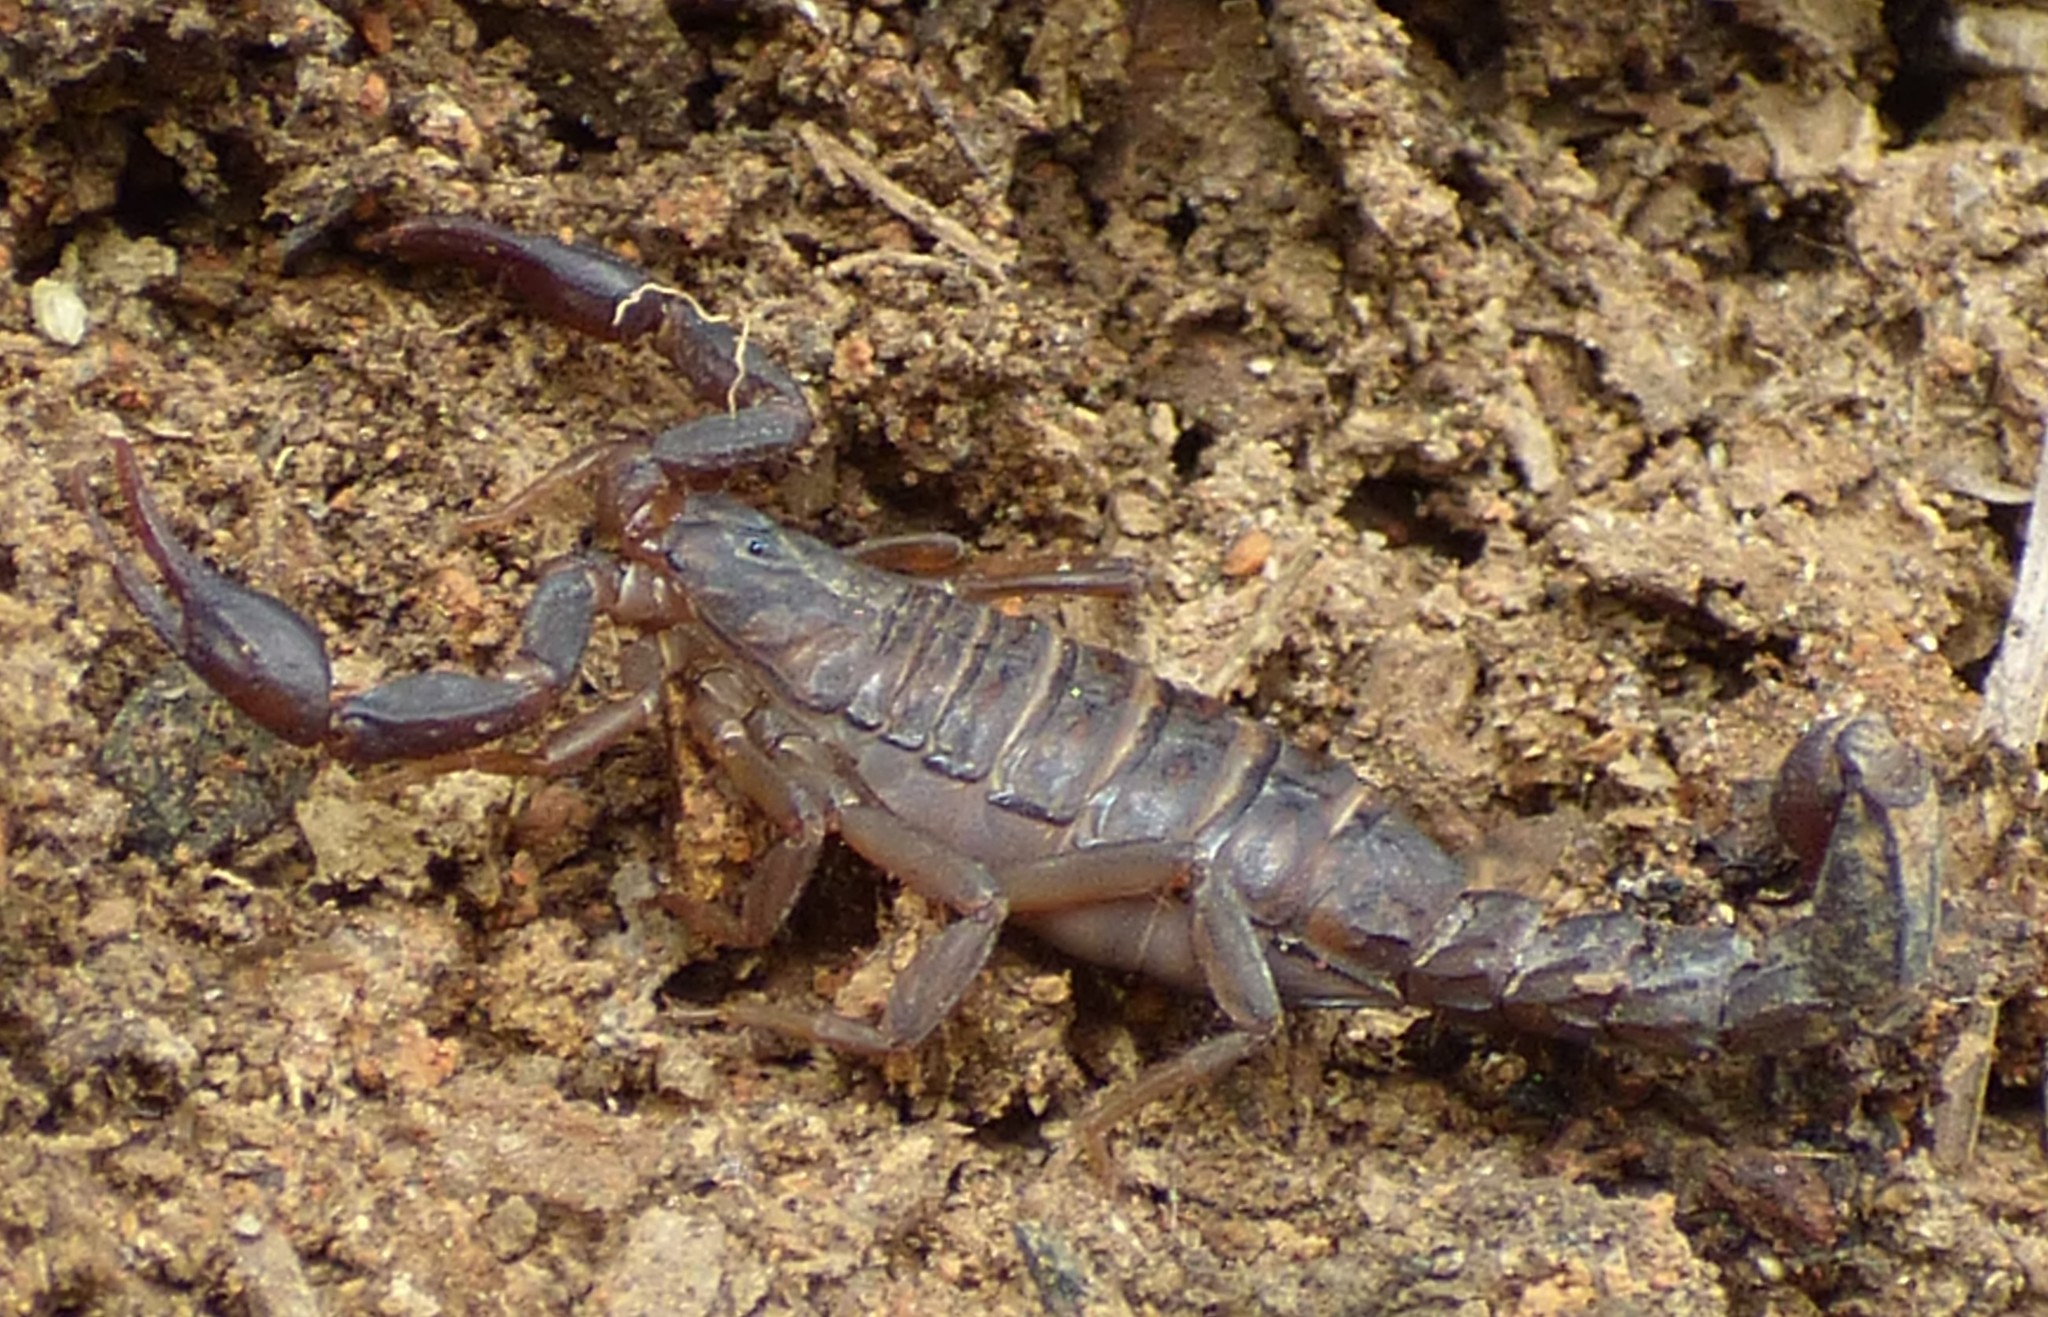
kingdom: Animalia
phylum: Arthropoda
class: Arachnida
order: Scorpiones
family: Vaejovidae
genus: Vaejovis
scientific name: Vaejovis carolinianus
